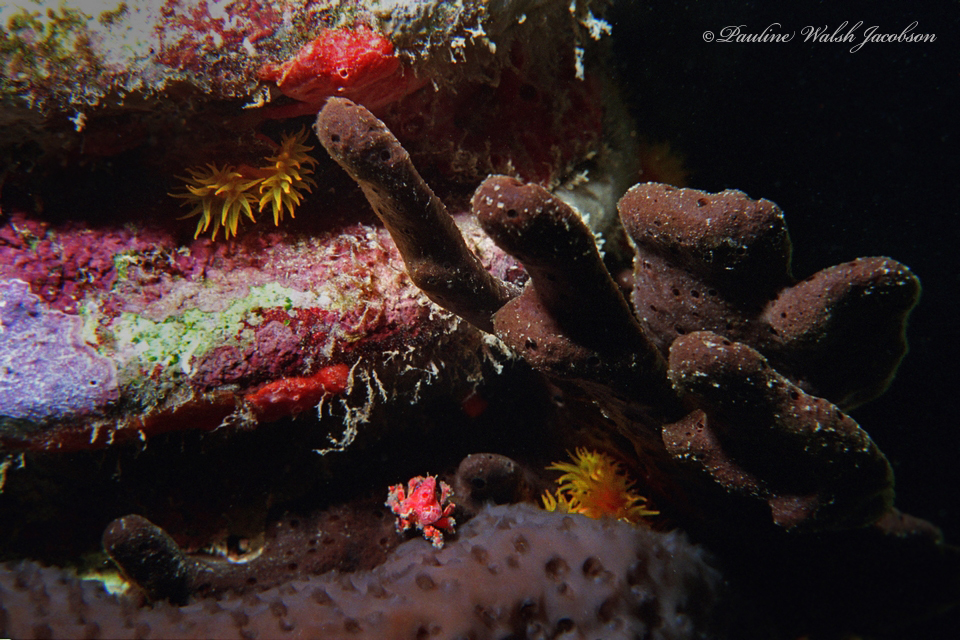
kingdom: Animalia
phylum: Arthropoda
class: Malacostraca
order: Decapoda
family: Epialtidae
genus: Pelia
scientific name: Pelia mutica
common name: Cryptic teardrop crab
